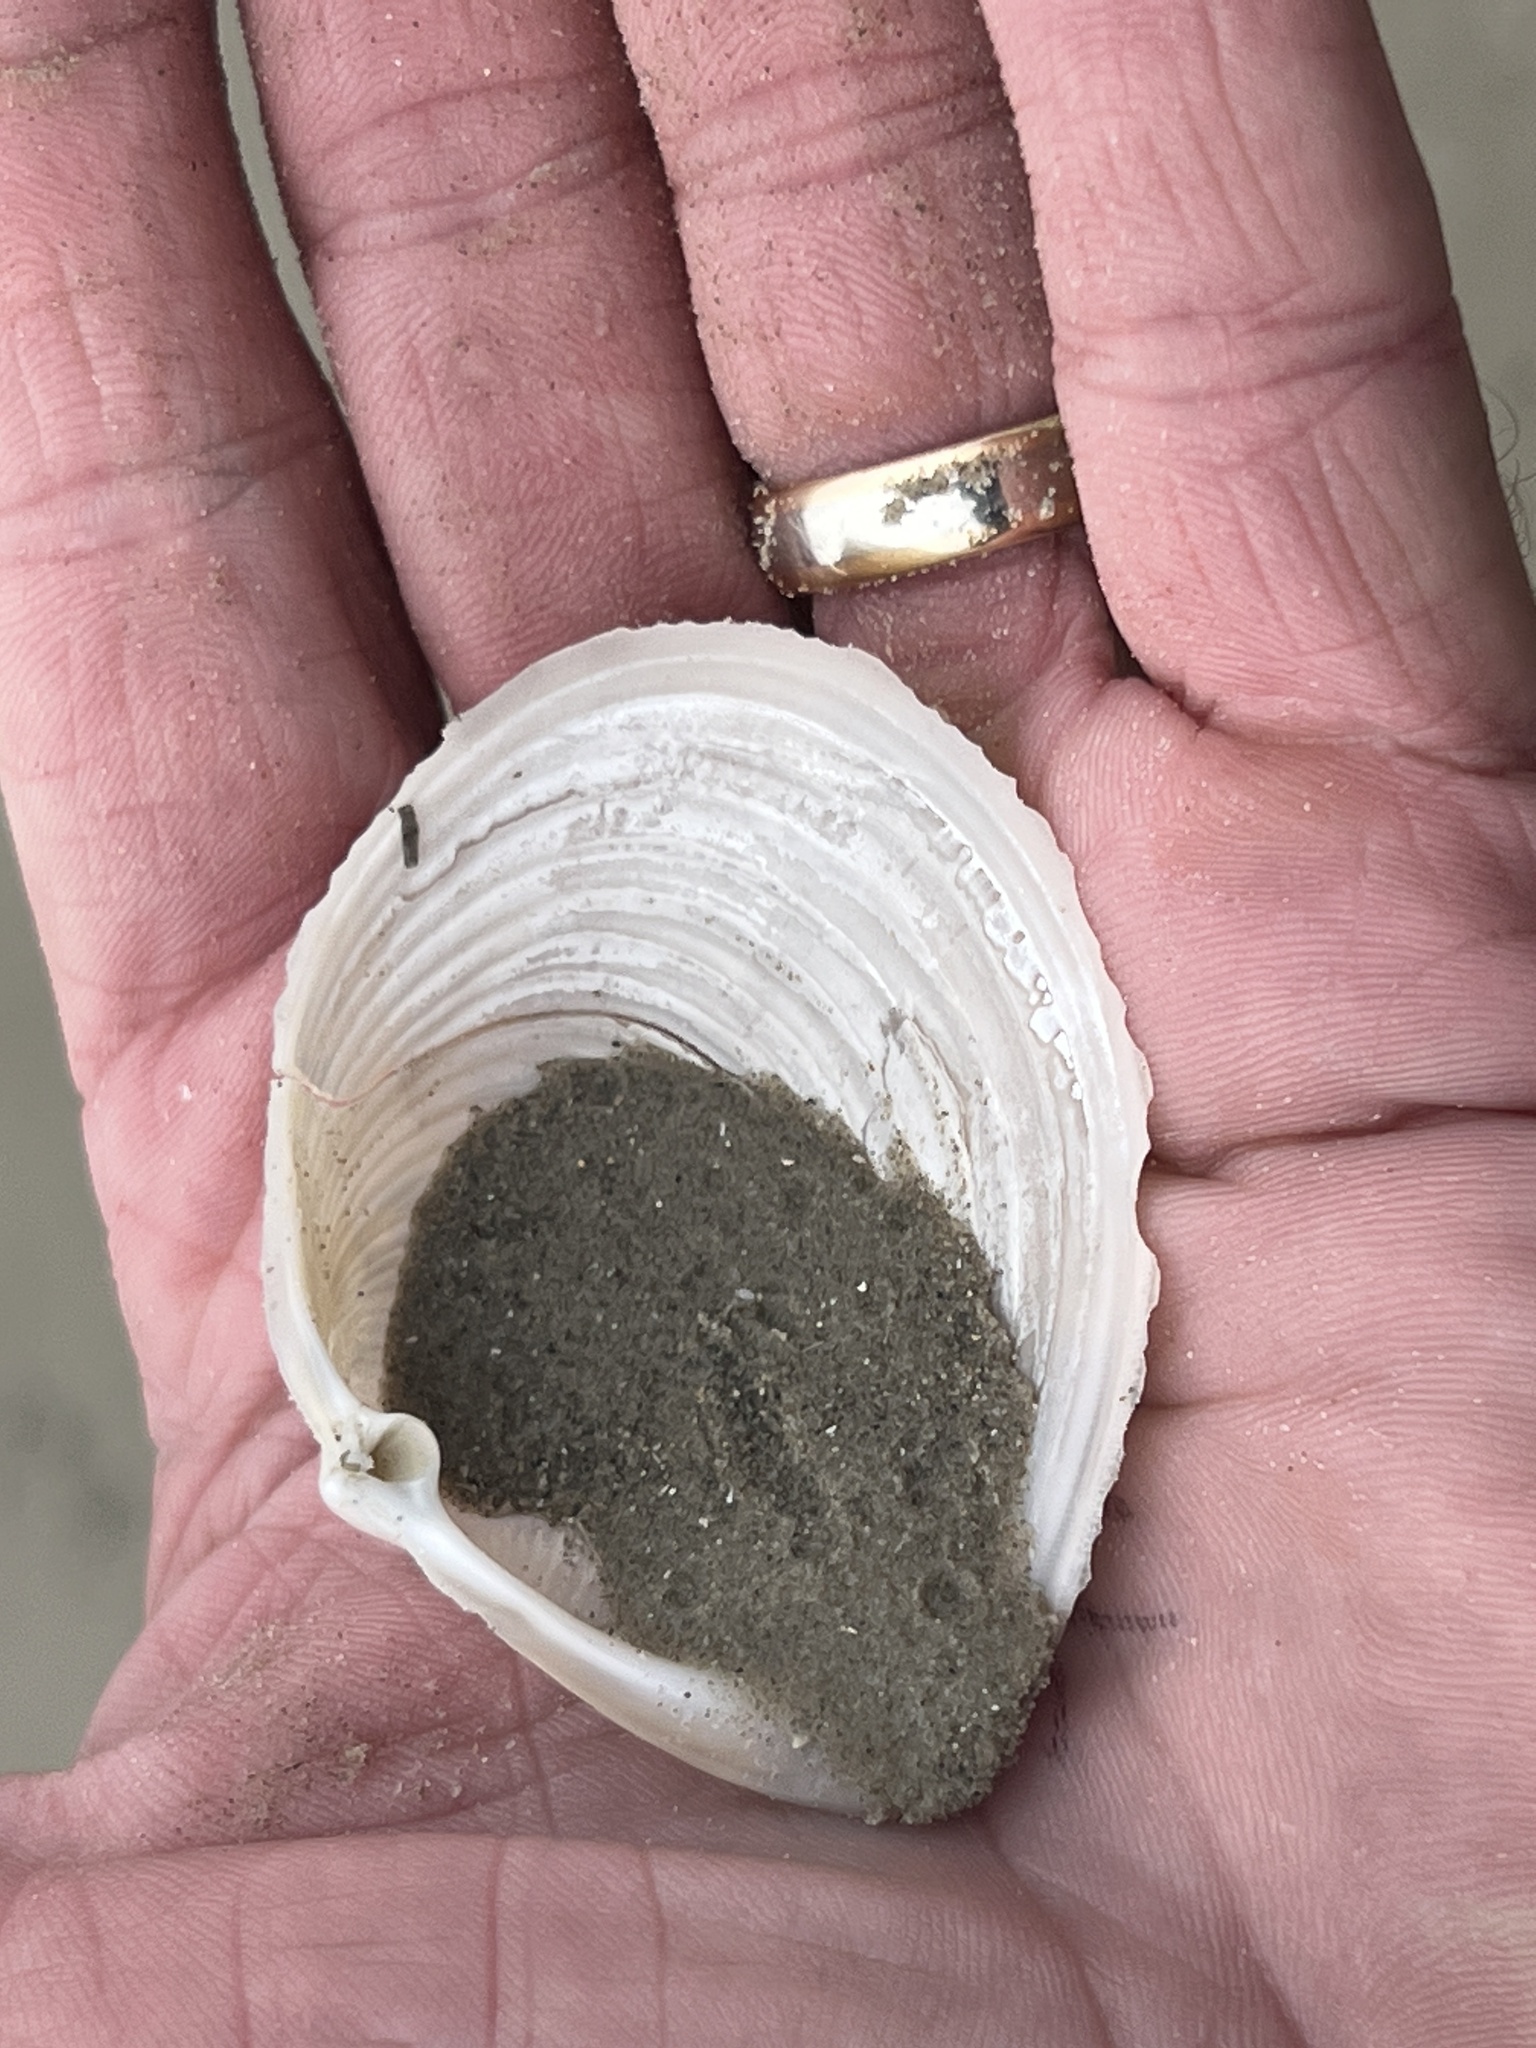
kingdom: Animalia
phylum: Mollusca
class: Bivalvia
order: Venerida
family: Anatinellidae
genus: Raeta
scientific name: Raeta plicatella
